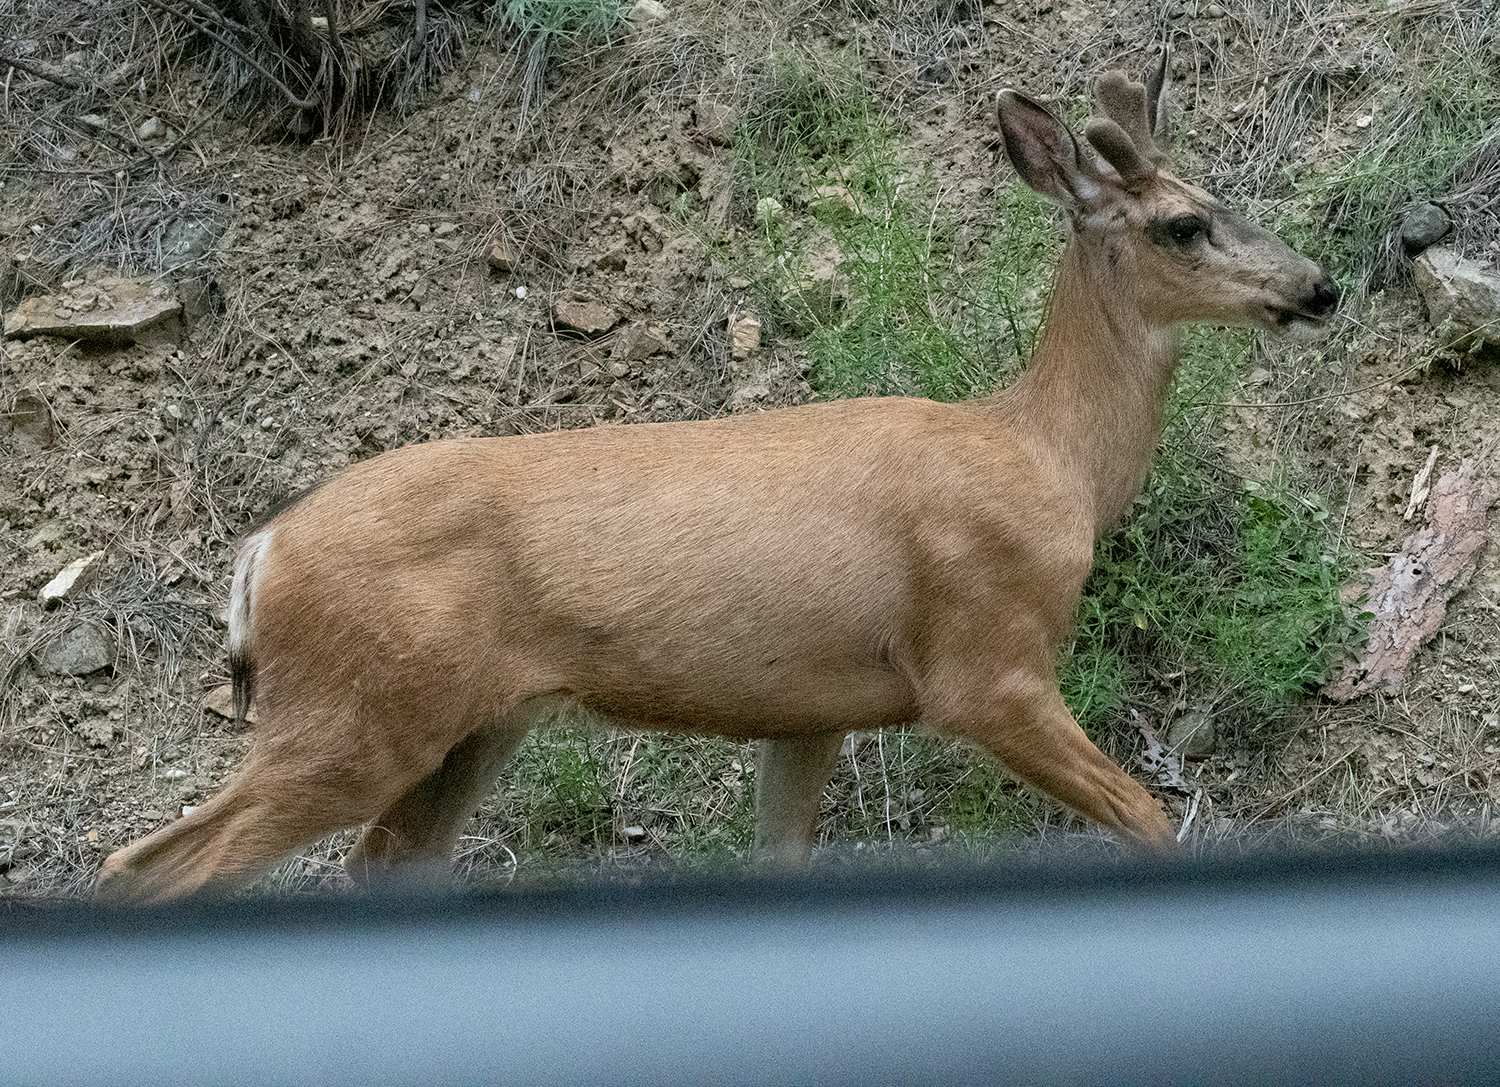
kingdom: Animalia
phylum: Chordata
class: Mammalia
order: Artiodactyla
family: Cervidae
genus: Odocoileus
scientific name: Odocoileus hemionus
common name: Mule deer
